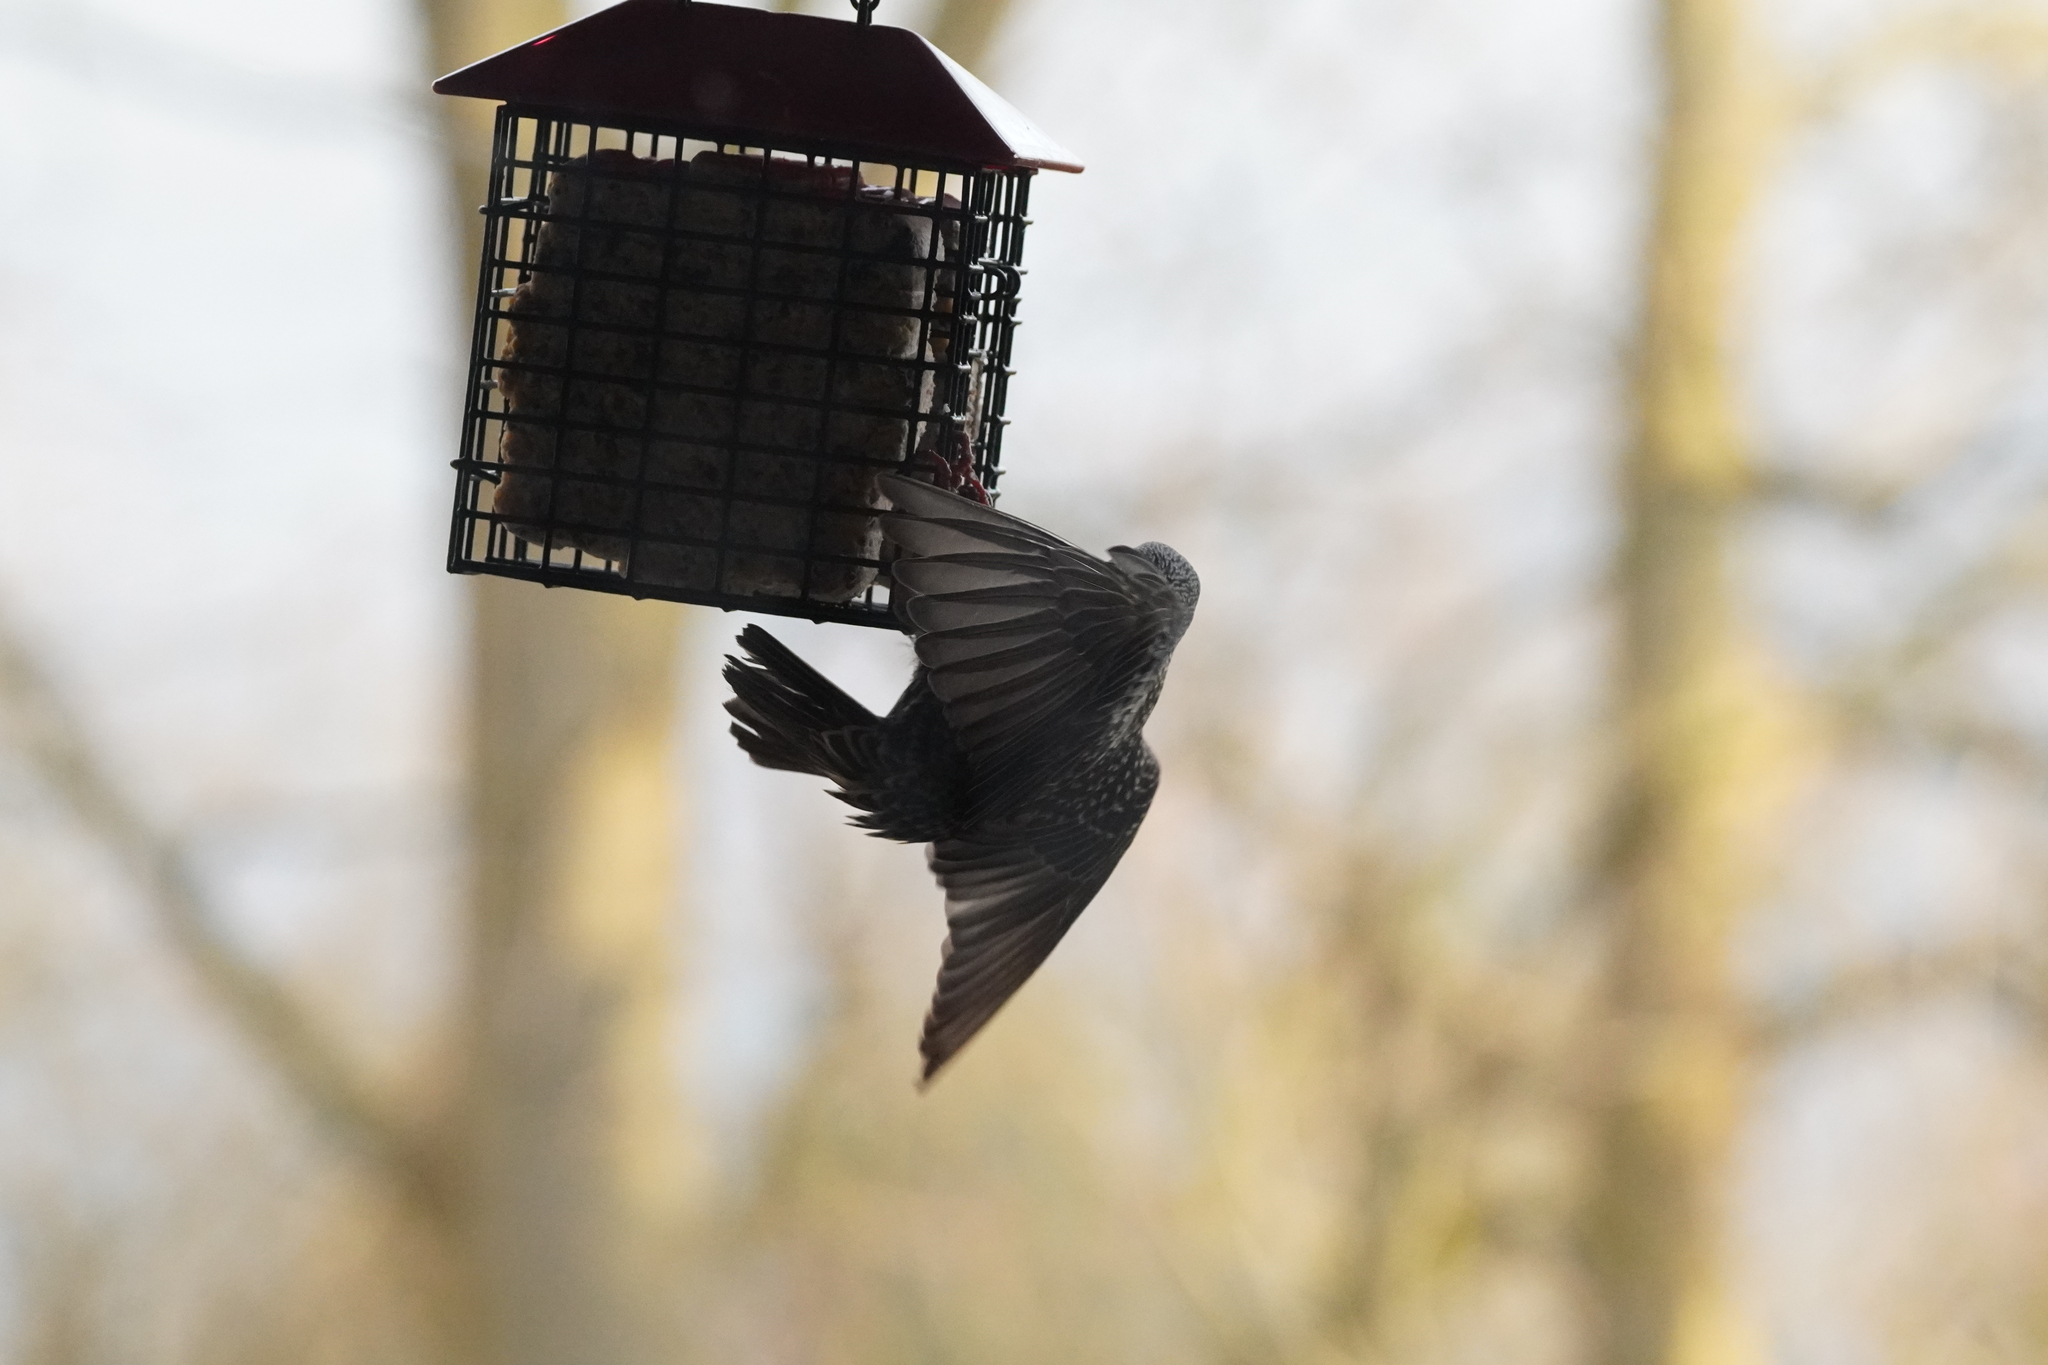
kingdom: Animalia
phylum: Chordata
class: Aves
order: Passeriformes
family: Sturnidae
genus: Sturnus
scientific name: Sturnus vulgaris
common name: Common starling
